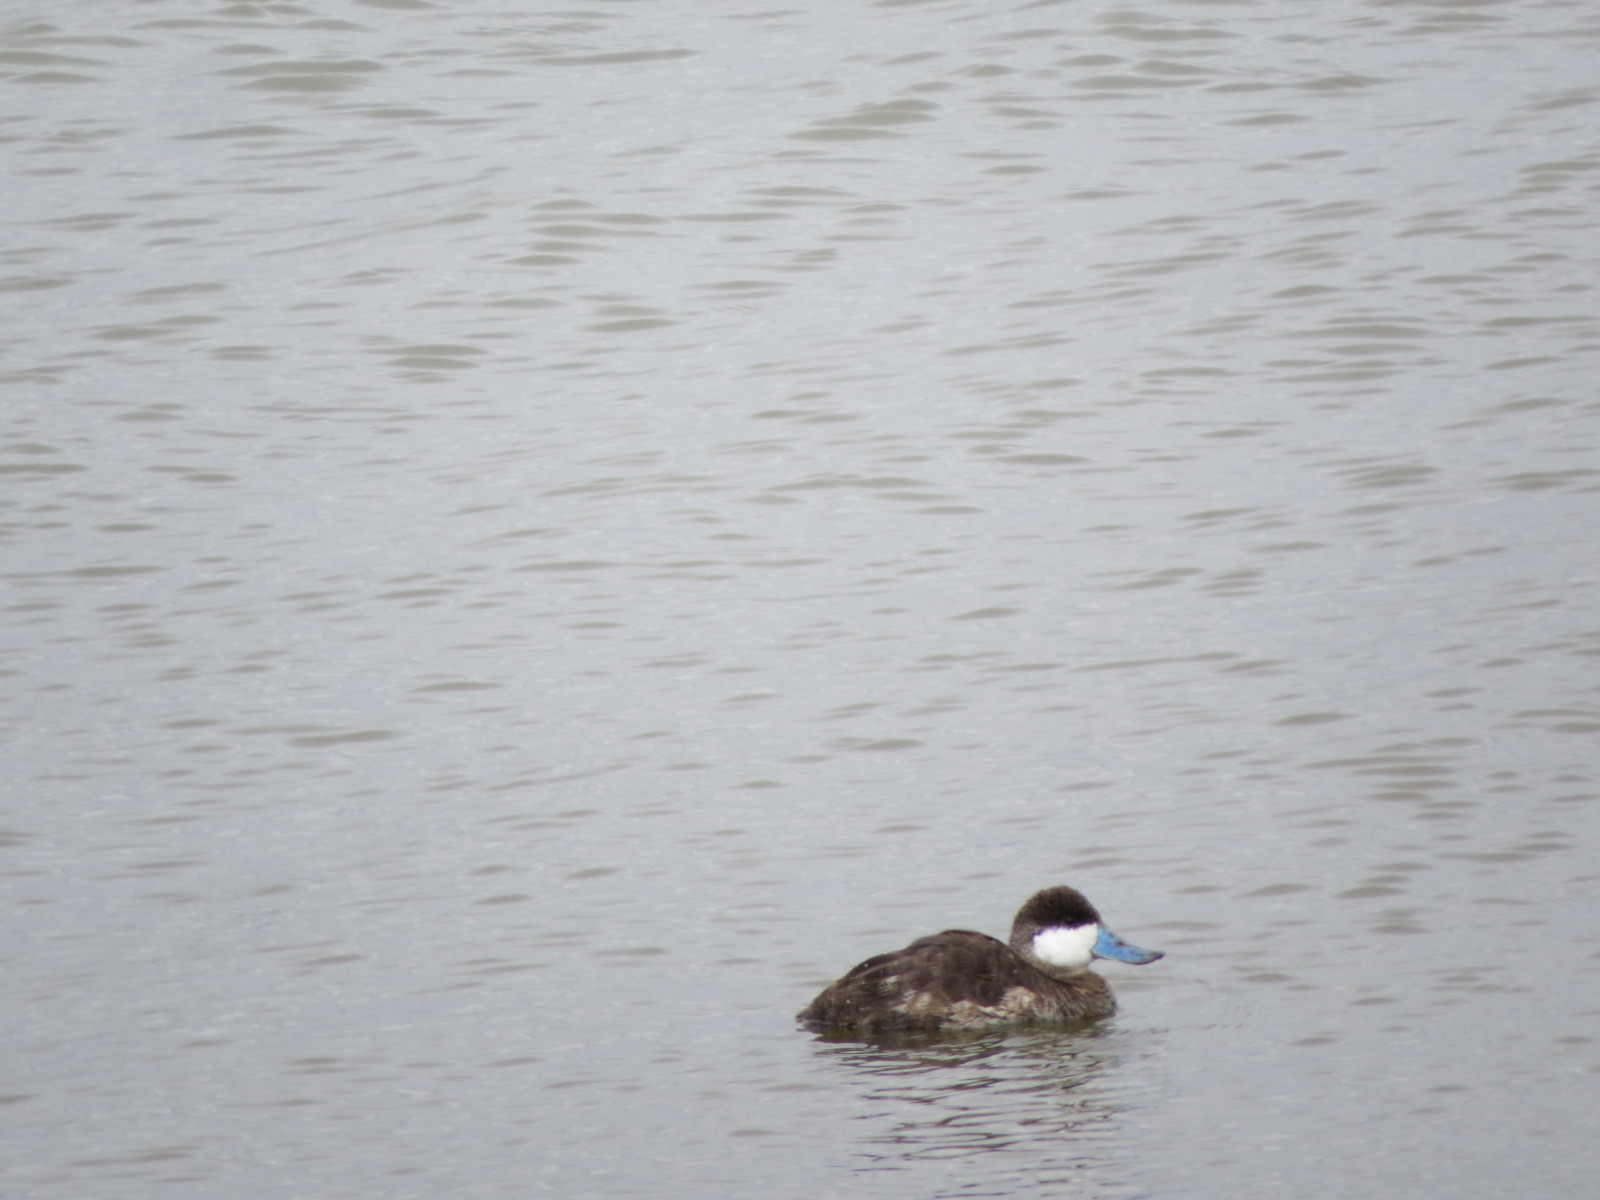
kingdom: Animalia
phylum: Chordata
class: Aves
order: Anseriformes
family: Anatidae
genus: Oxyura
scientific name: Oxyura jamaicensis
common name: Ruddy duck
